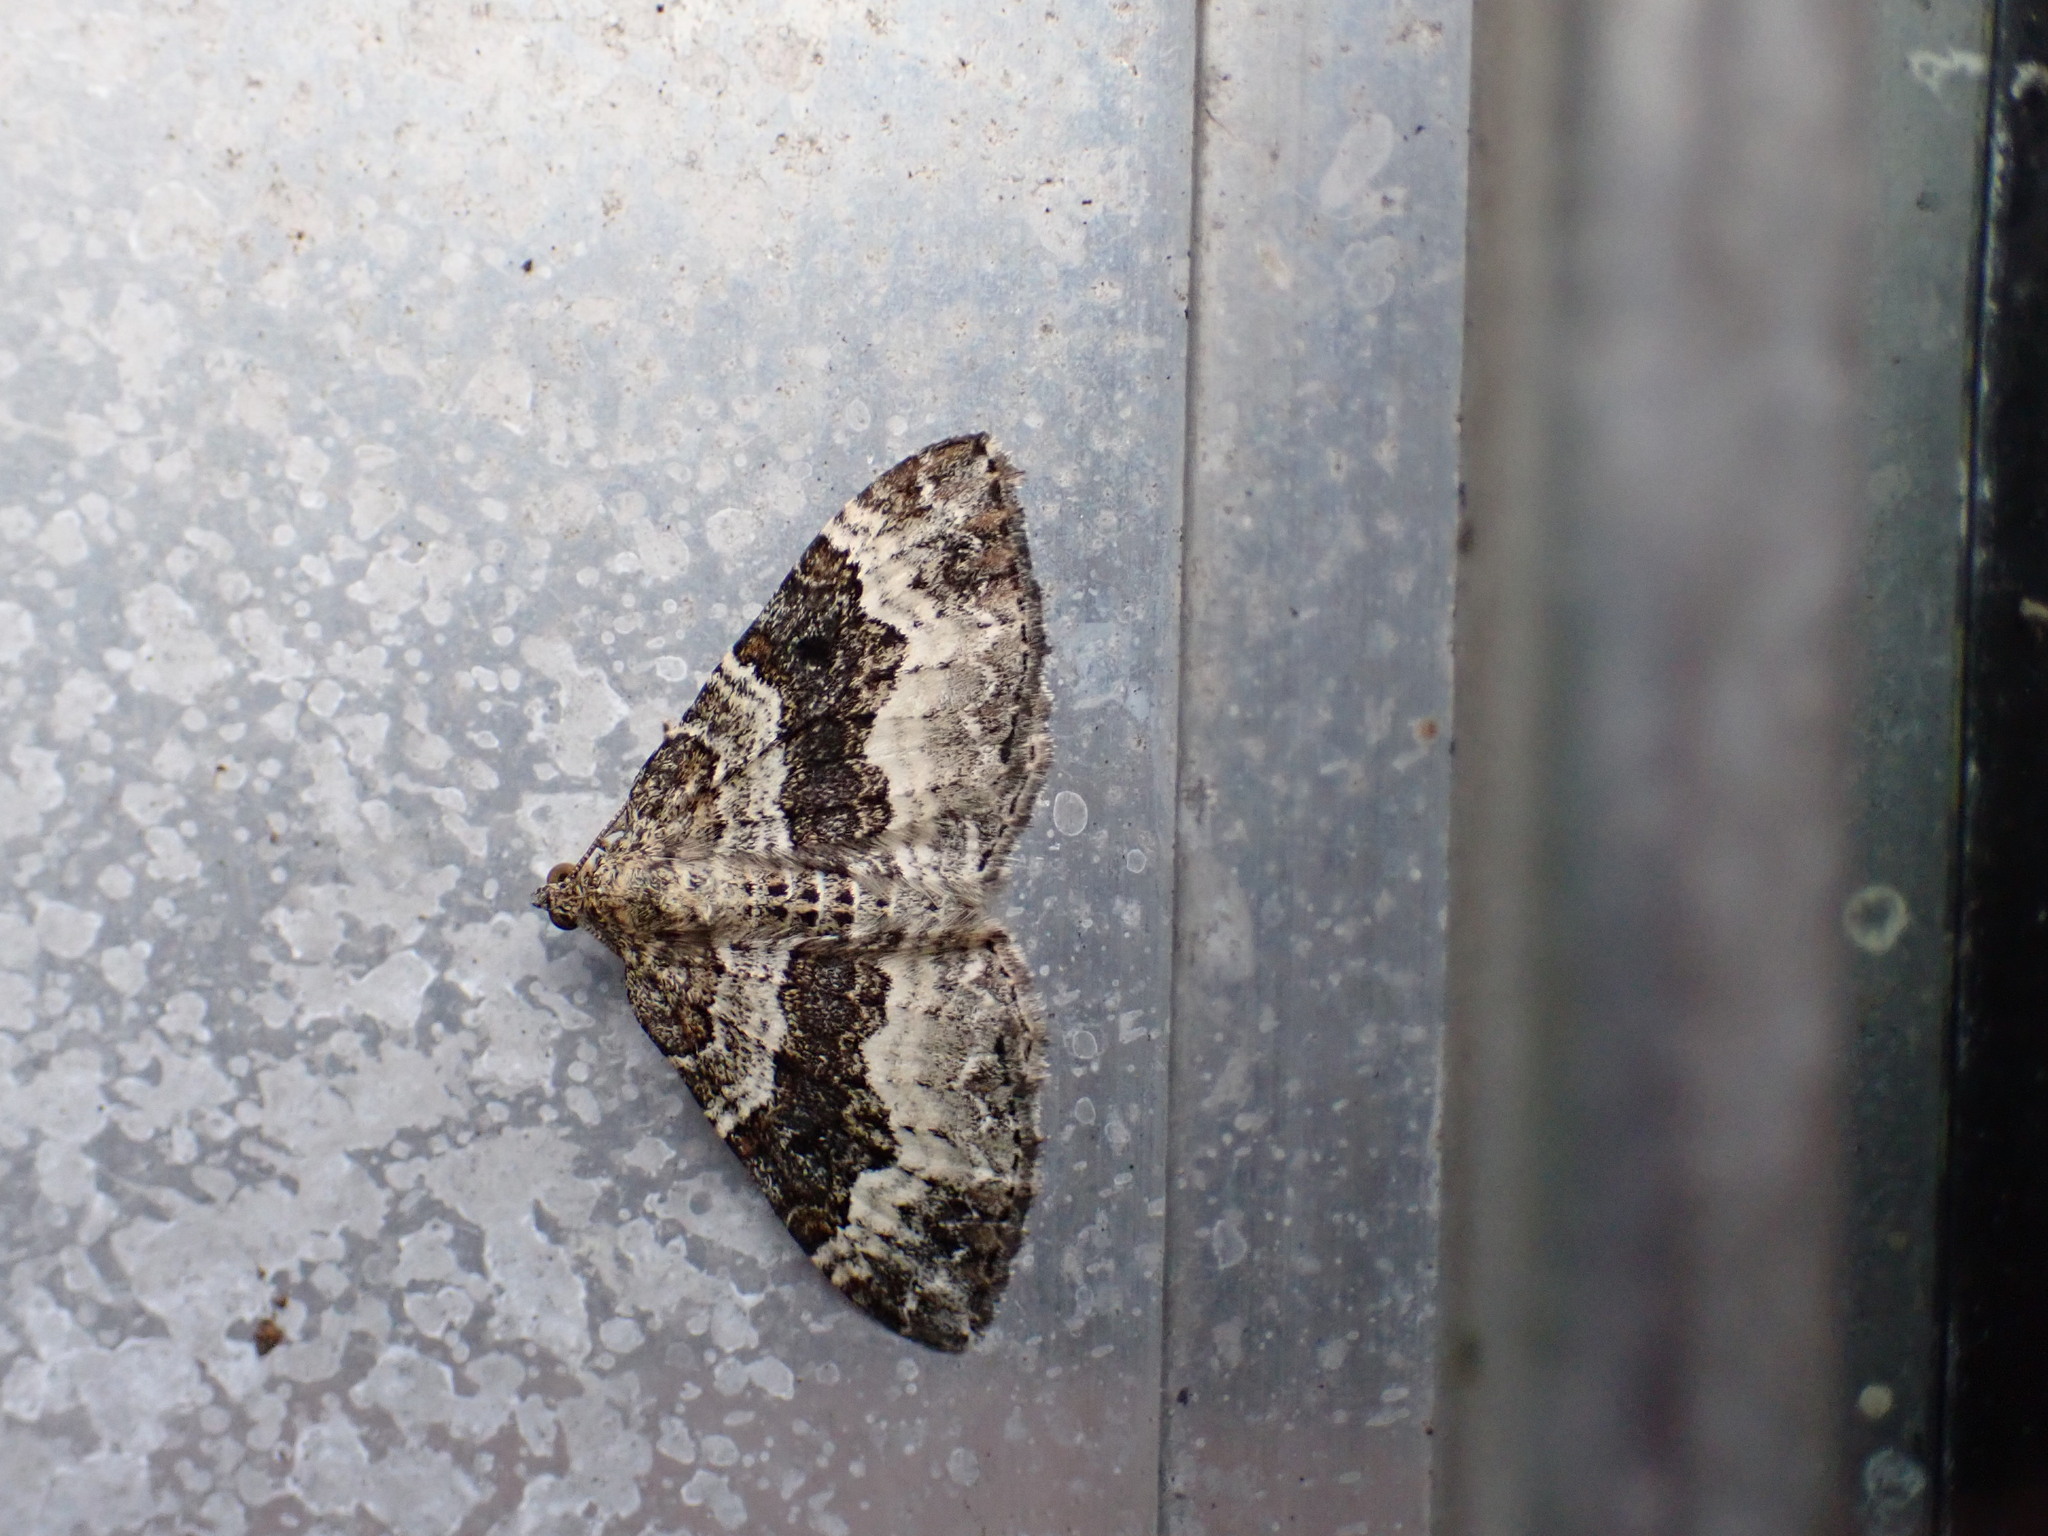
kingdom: Animalia
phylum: Arthropoda
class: Insecta
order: Lepidoptera
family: Geometridae
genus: Epirrhoe
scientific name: Epirrhoe alternata
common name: Common carpet
